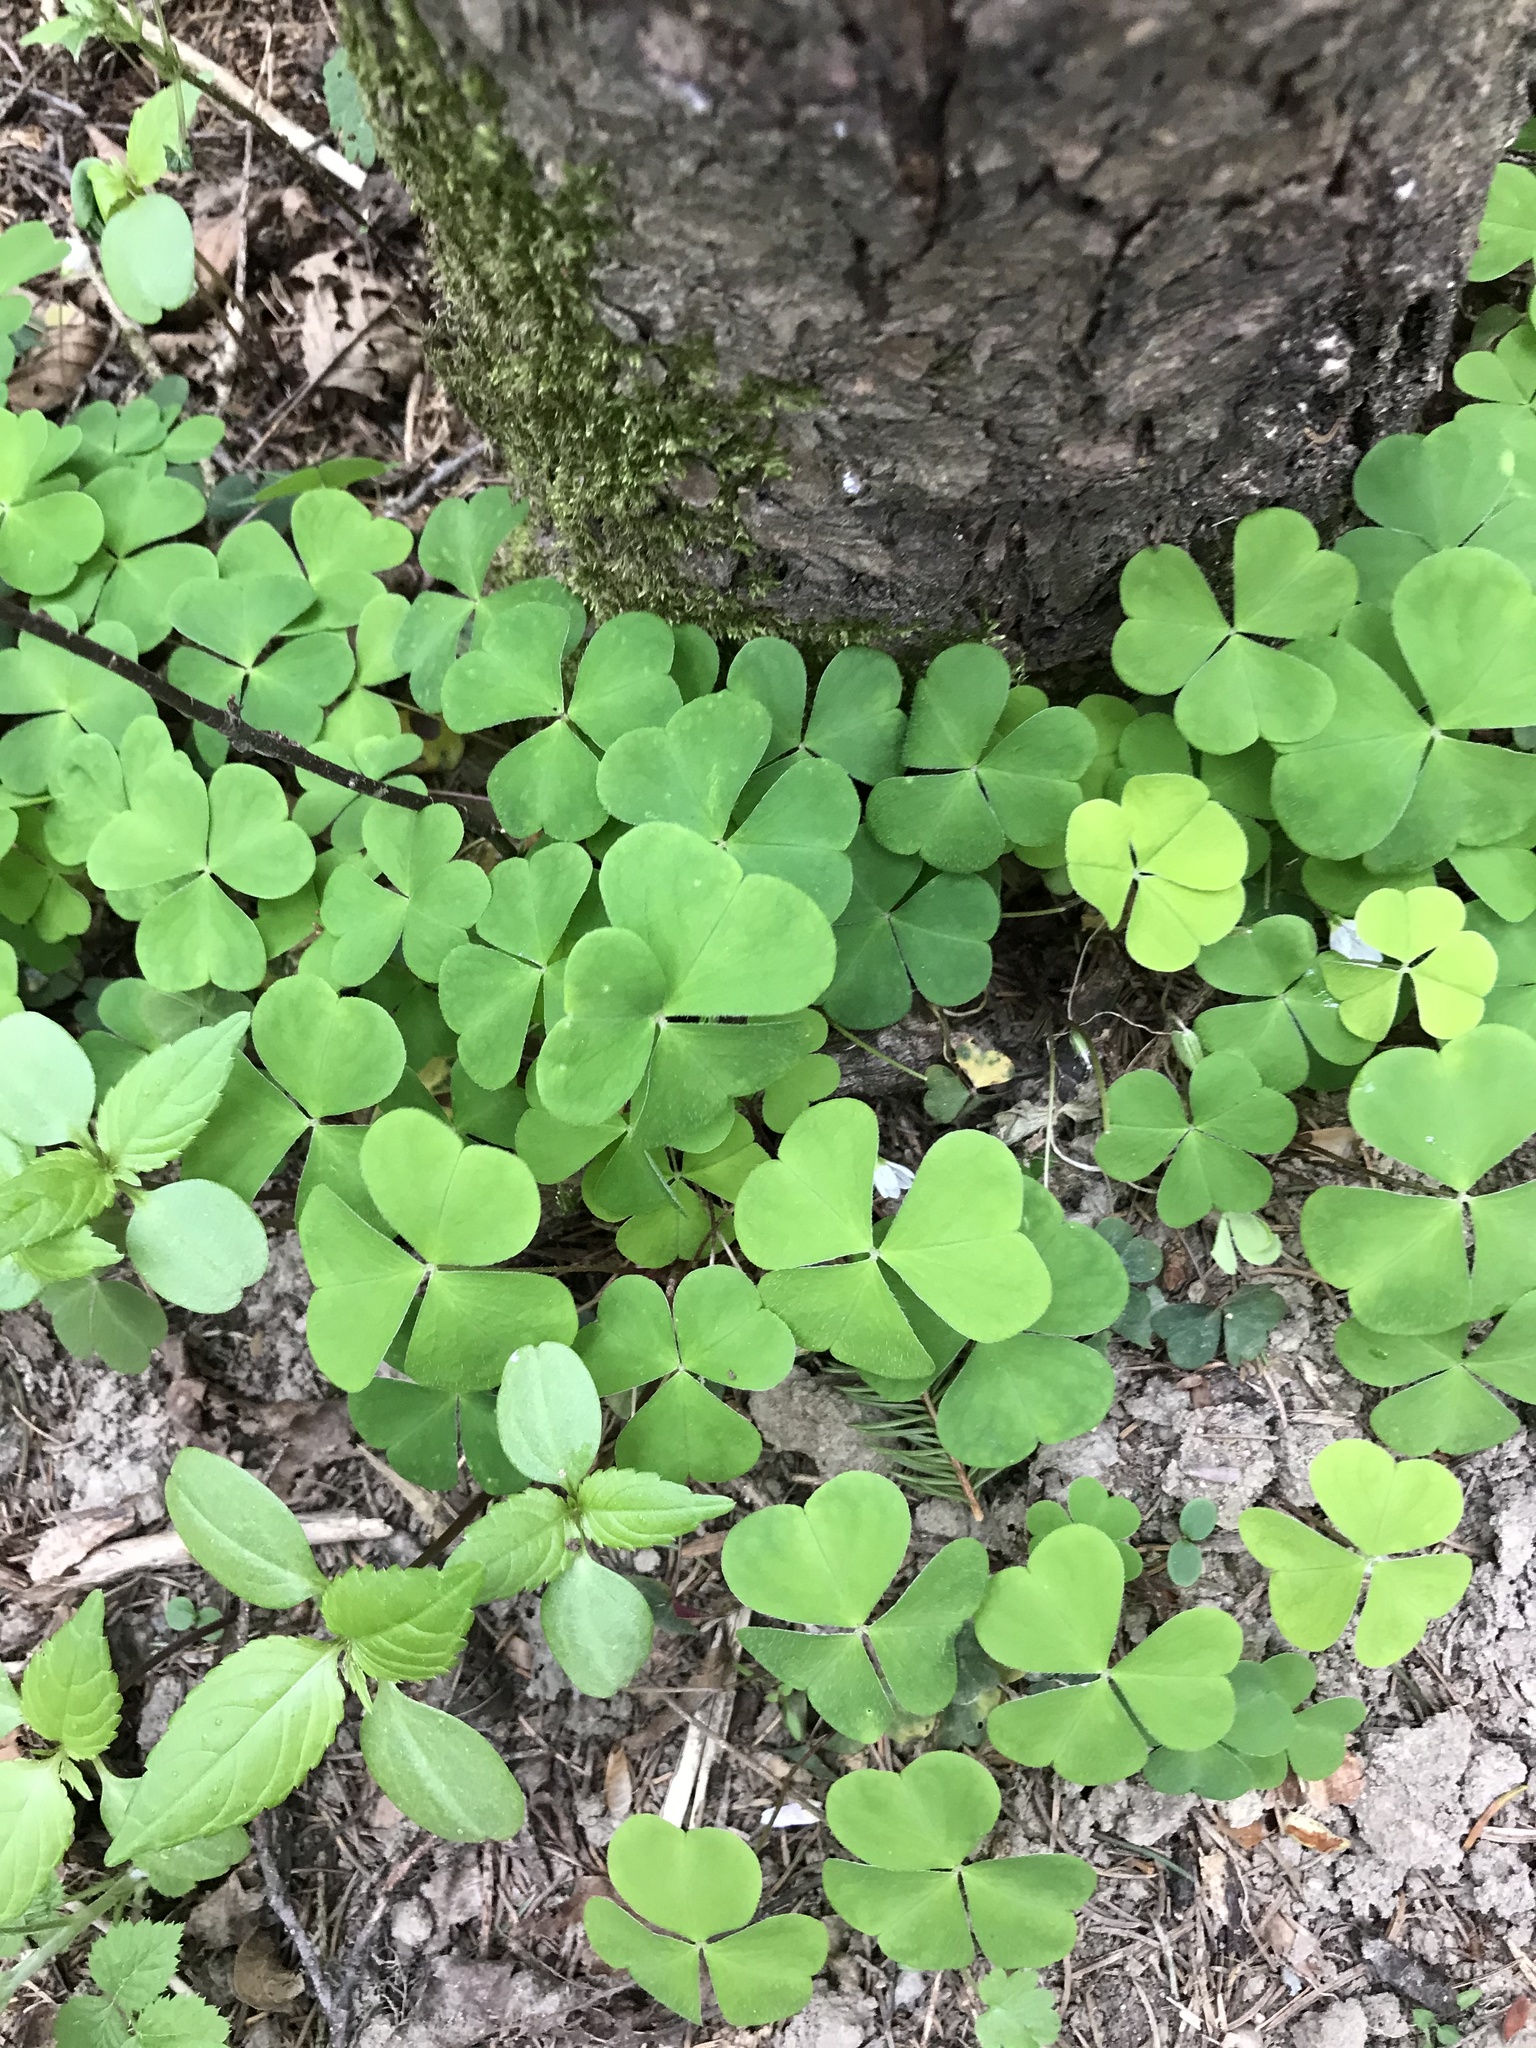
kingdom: Plantae
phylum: Tracheophyta
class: Magnoliopsida
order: Oxalidales
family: Oxalidaceae
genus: Oxalis
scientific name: Oxalis acetosella
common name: Wood-sorrel
